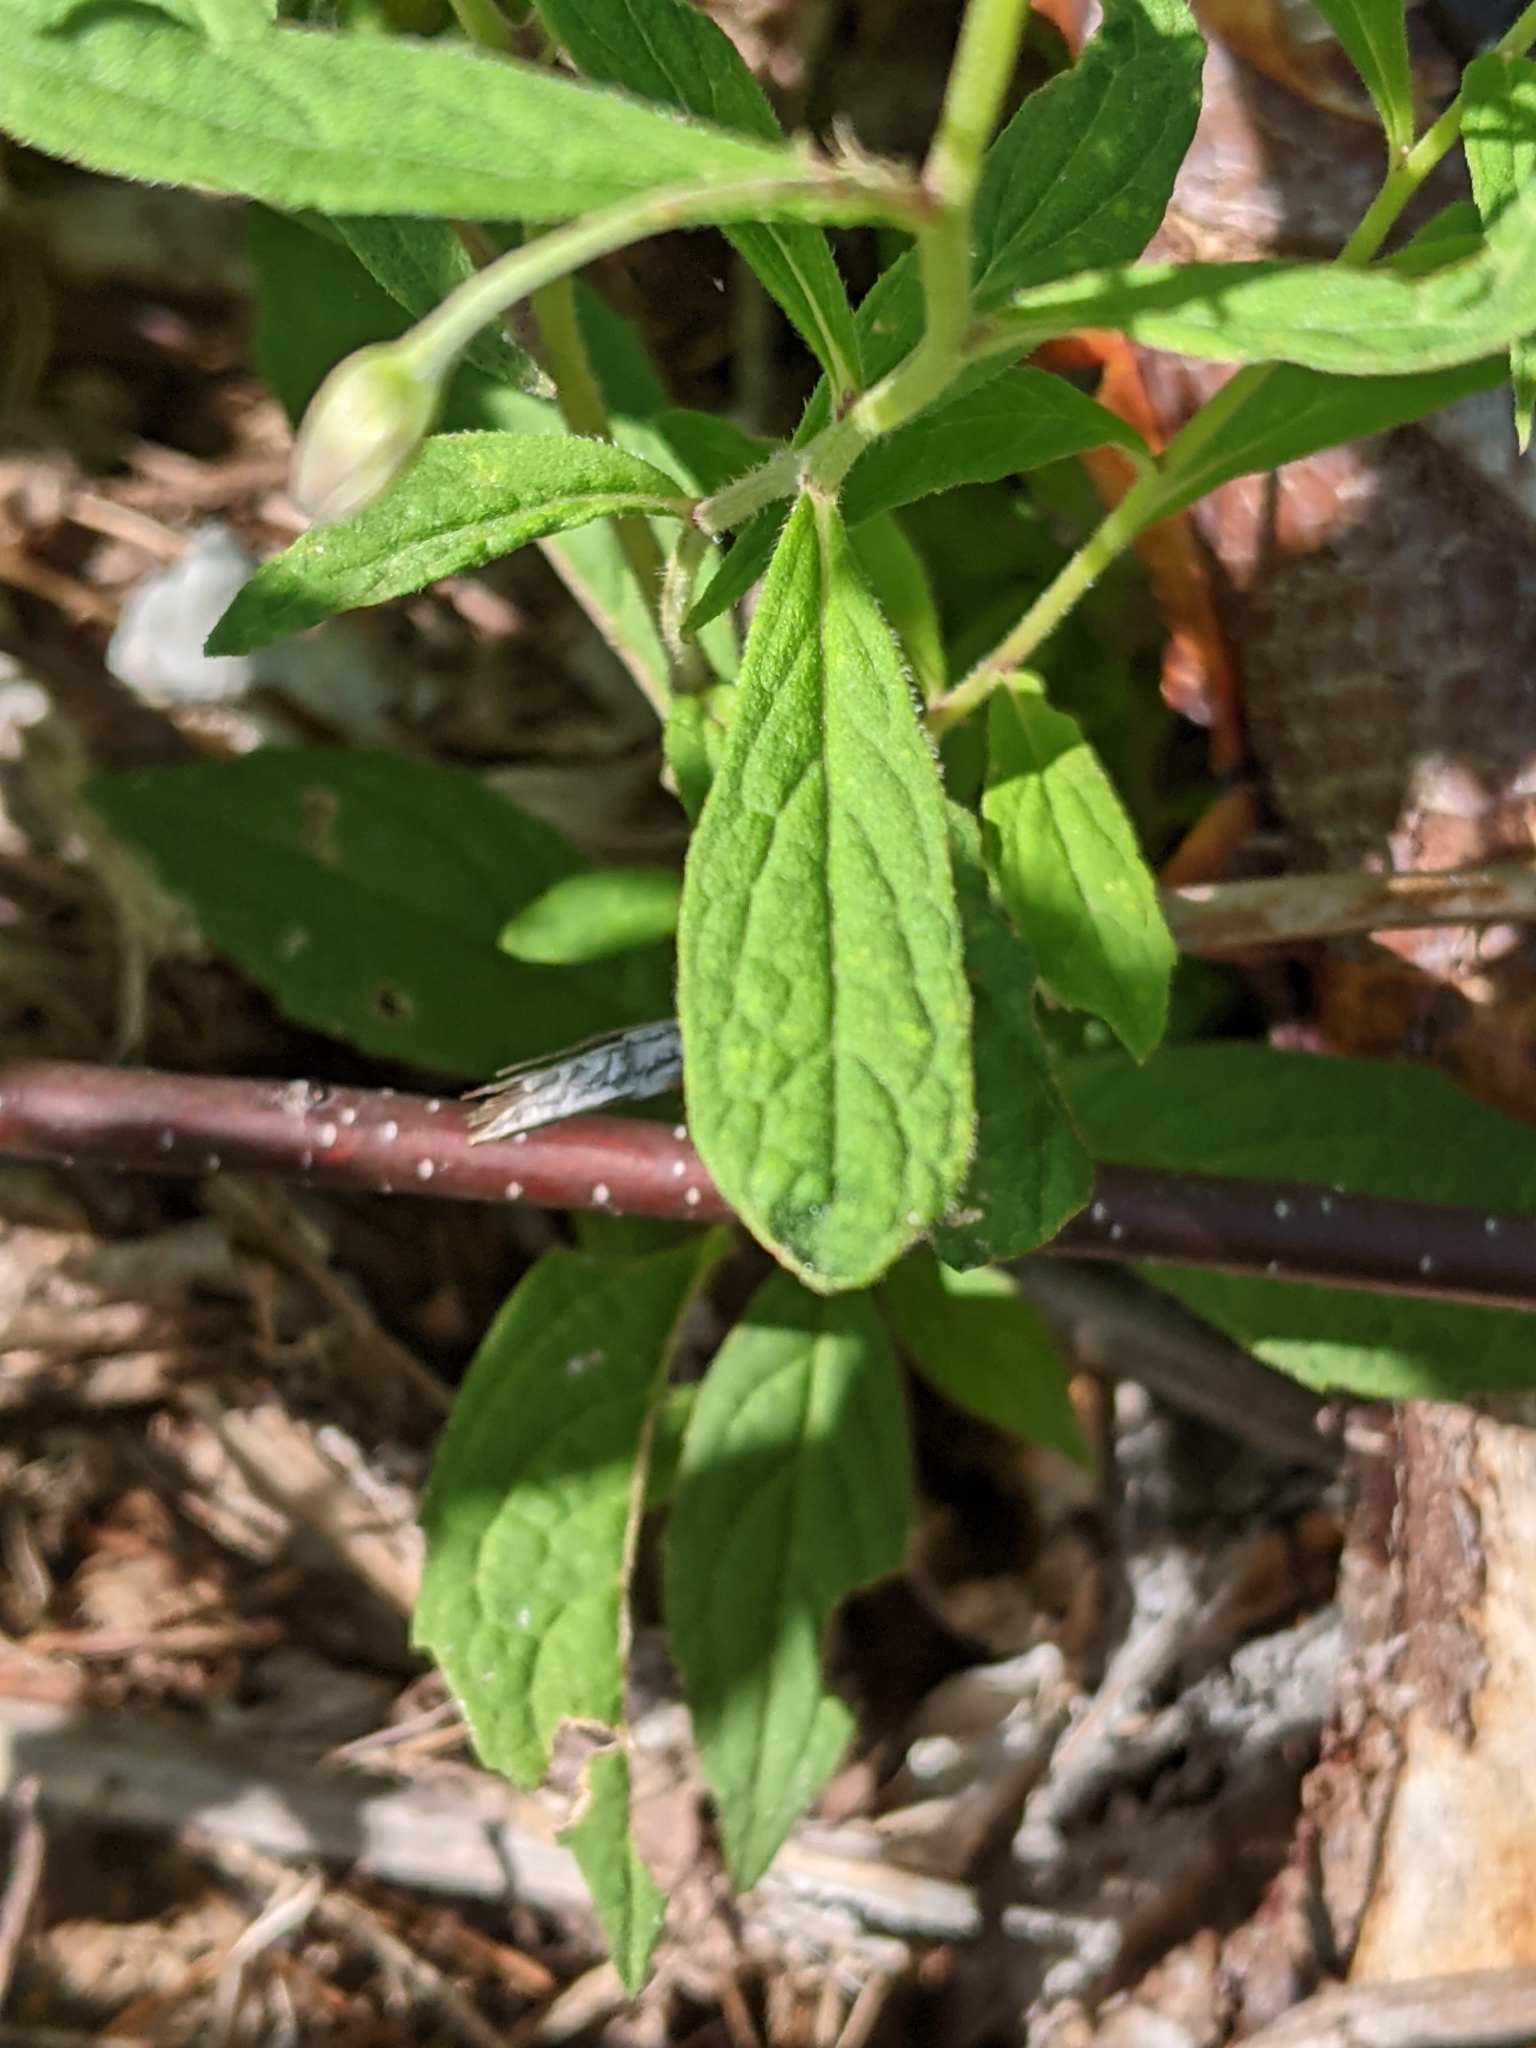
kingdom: Plantae
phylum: Tracheophyta
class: Magnoliopsida
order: Asterales
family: Asteraceae
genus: Oclemena
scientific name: Oclemena acuminata
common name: Mountain aster
